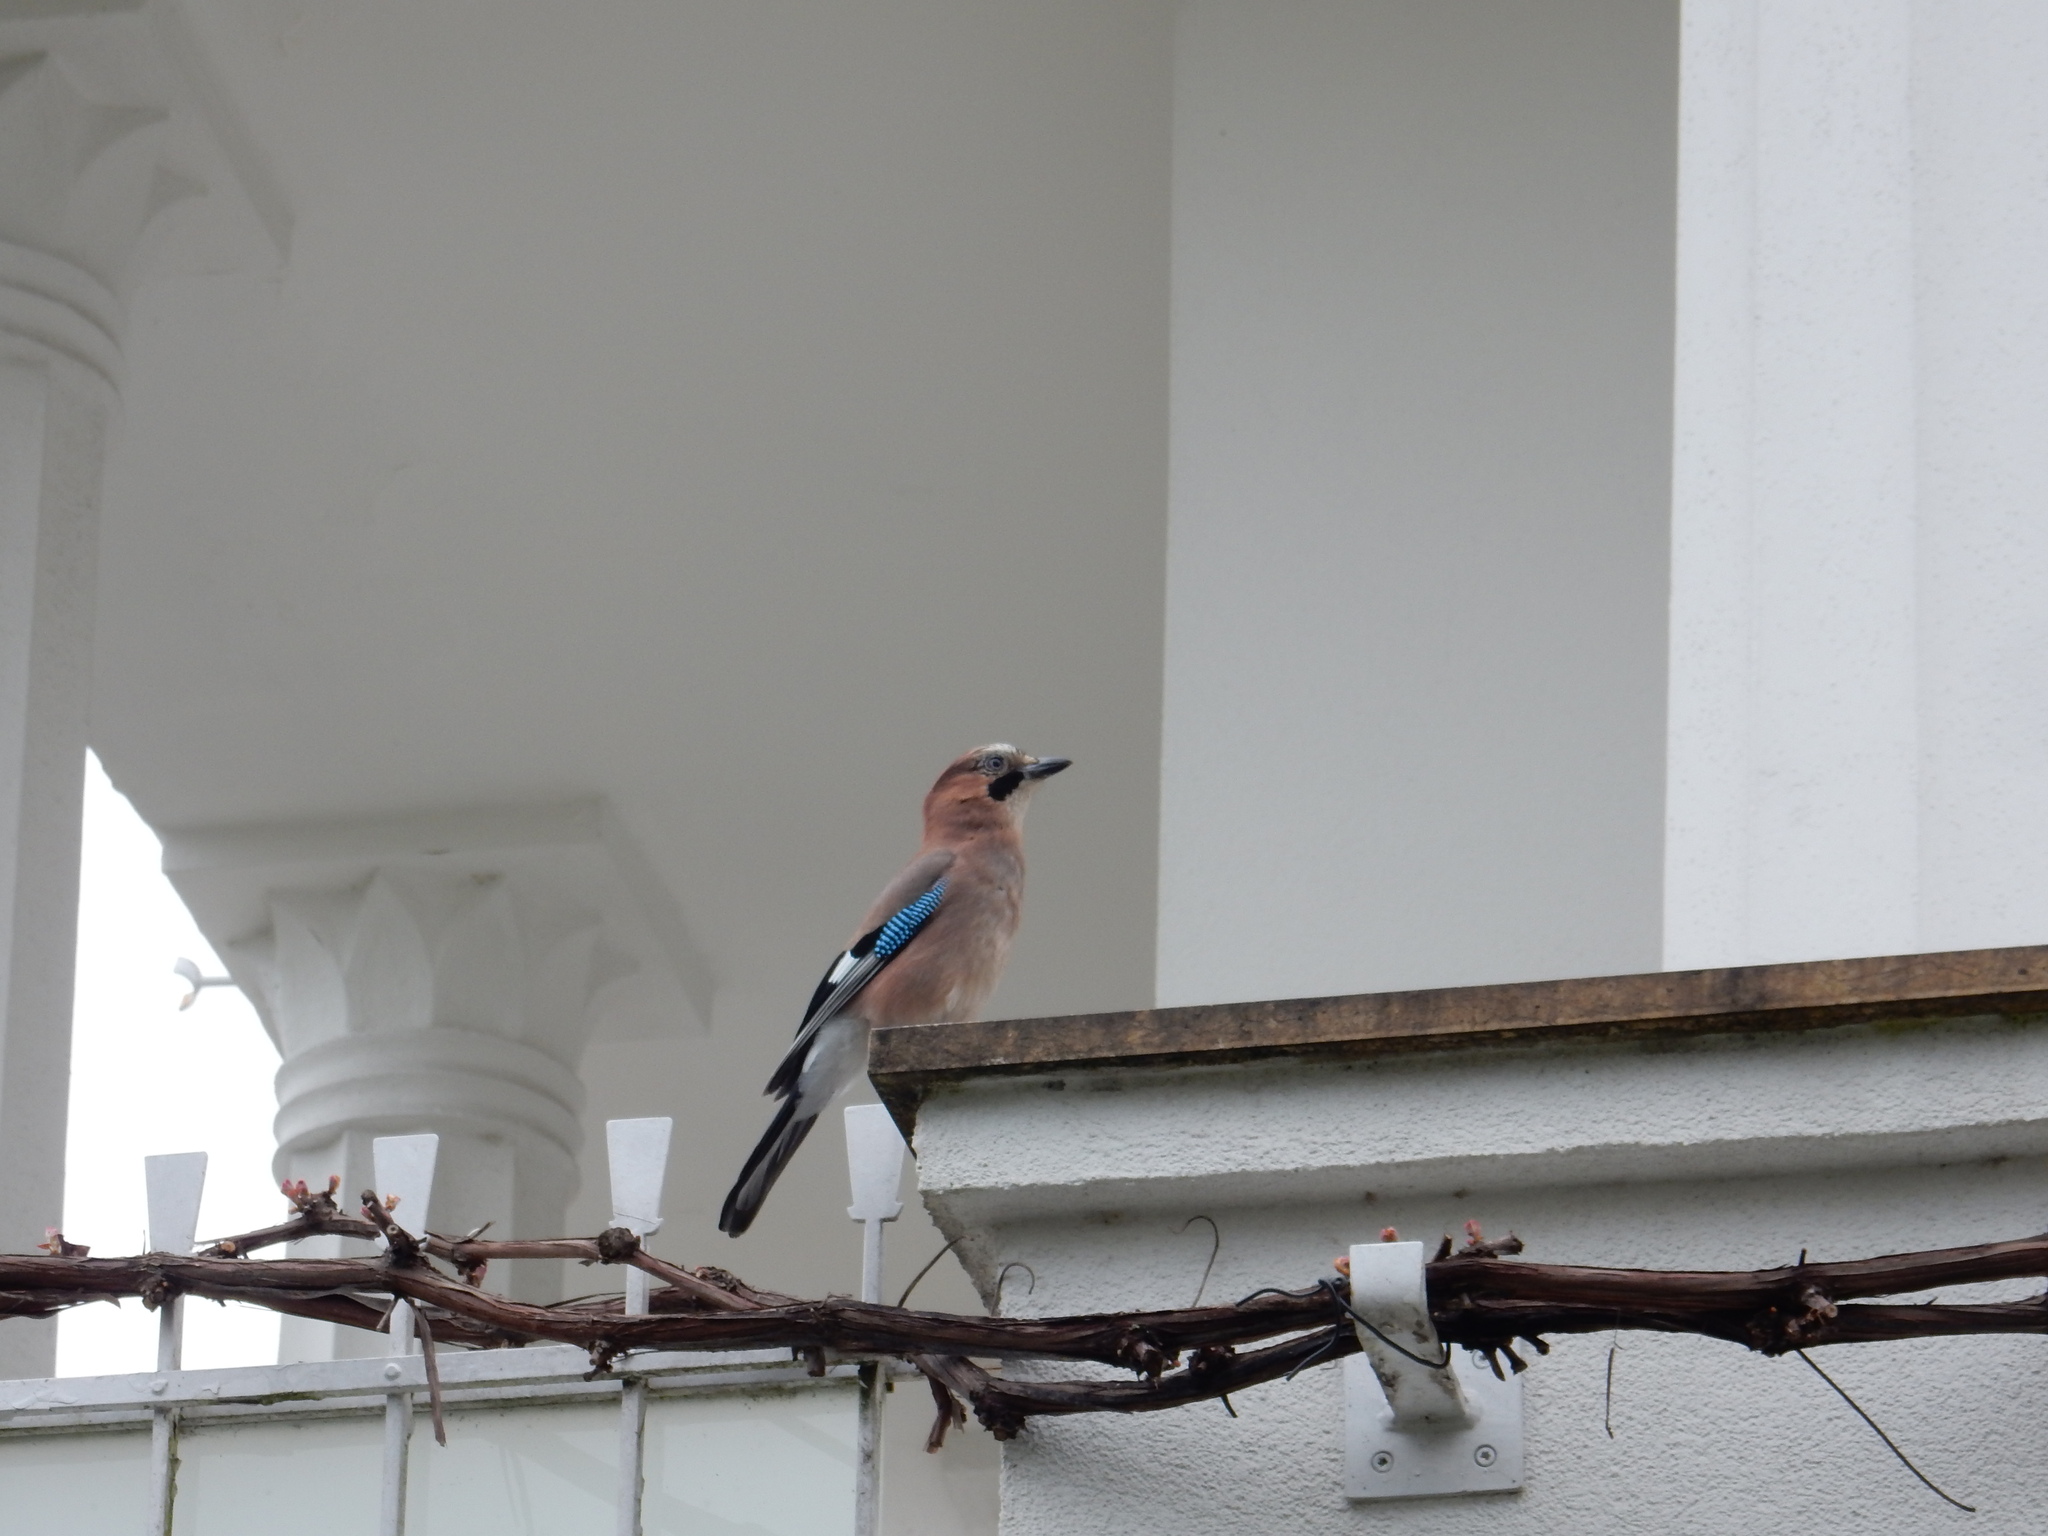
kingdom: Animalia
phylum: Chordata
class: Aves
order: Passeriformes
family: Corvidae
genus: Garrulus
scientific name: Garrulus glandarius
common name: Eurasian jay
